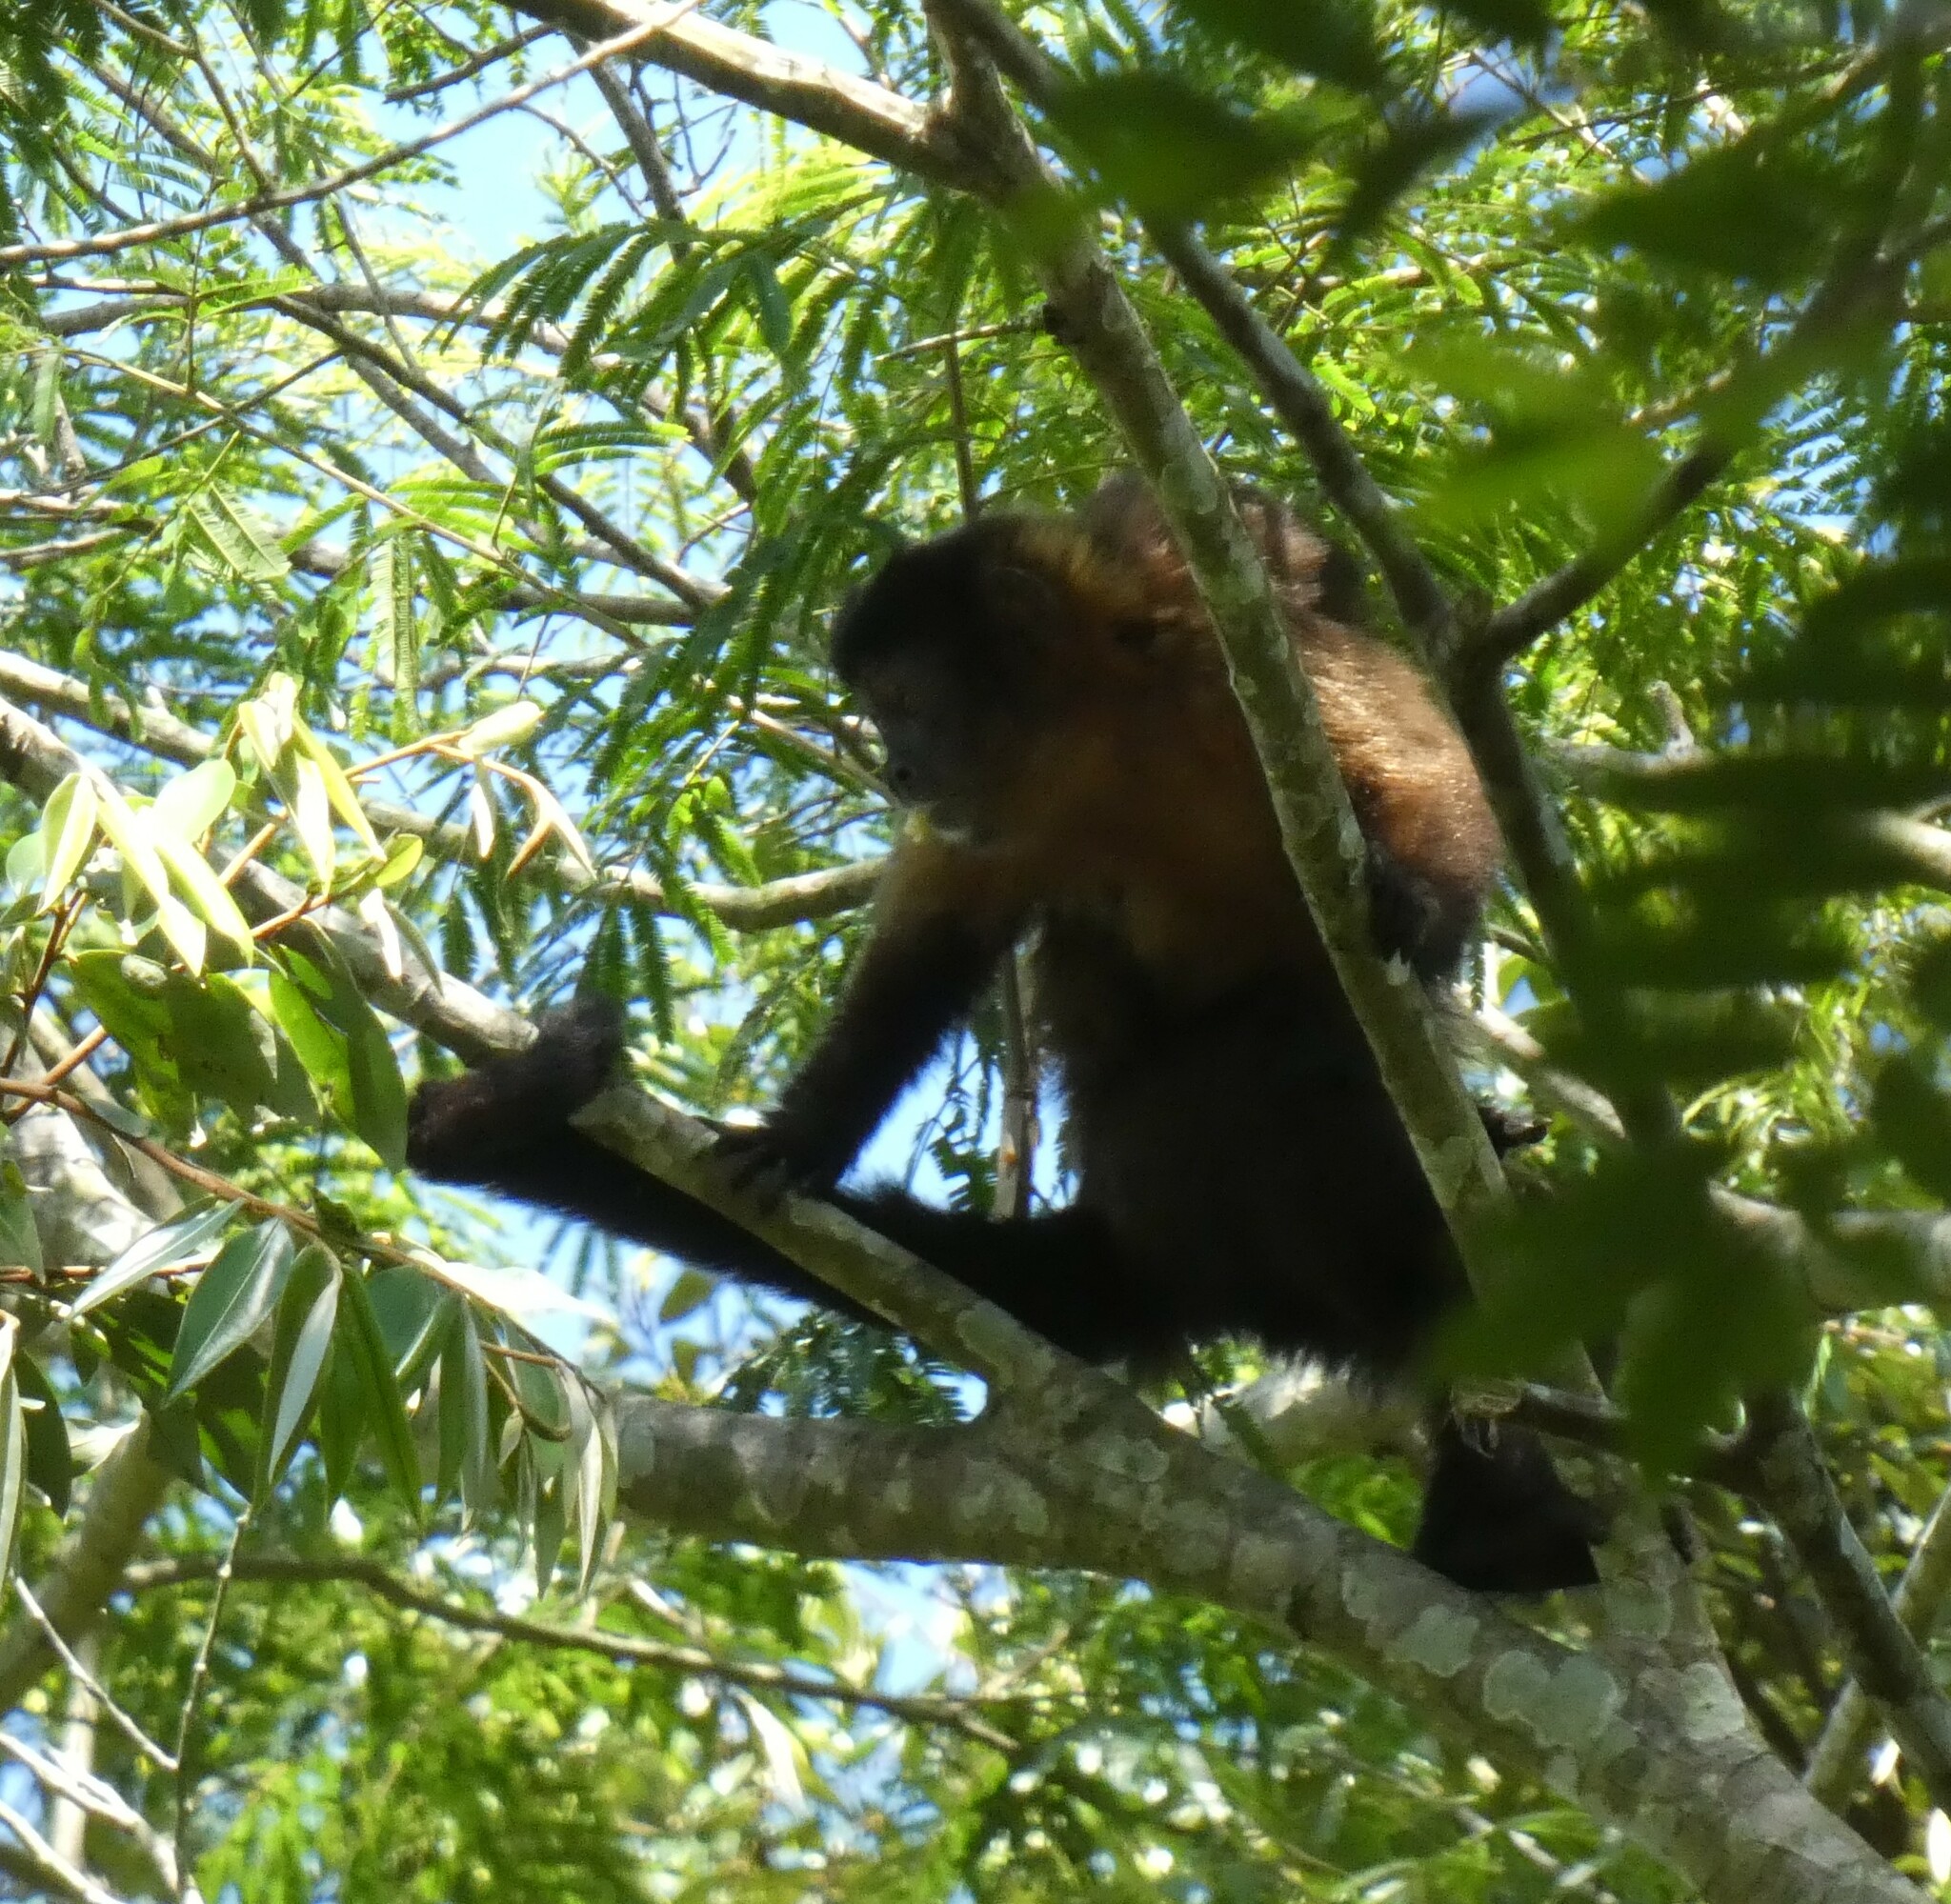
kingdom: Animalia
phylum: Chordata
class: Mammalia
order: Primates
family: Cebidae
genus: Sapajus
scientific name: Sapajus nigritus
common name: Black capuchin
